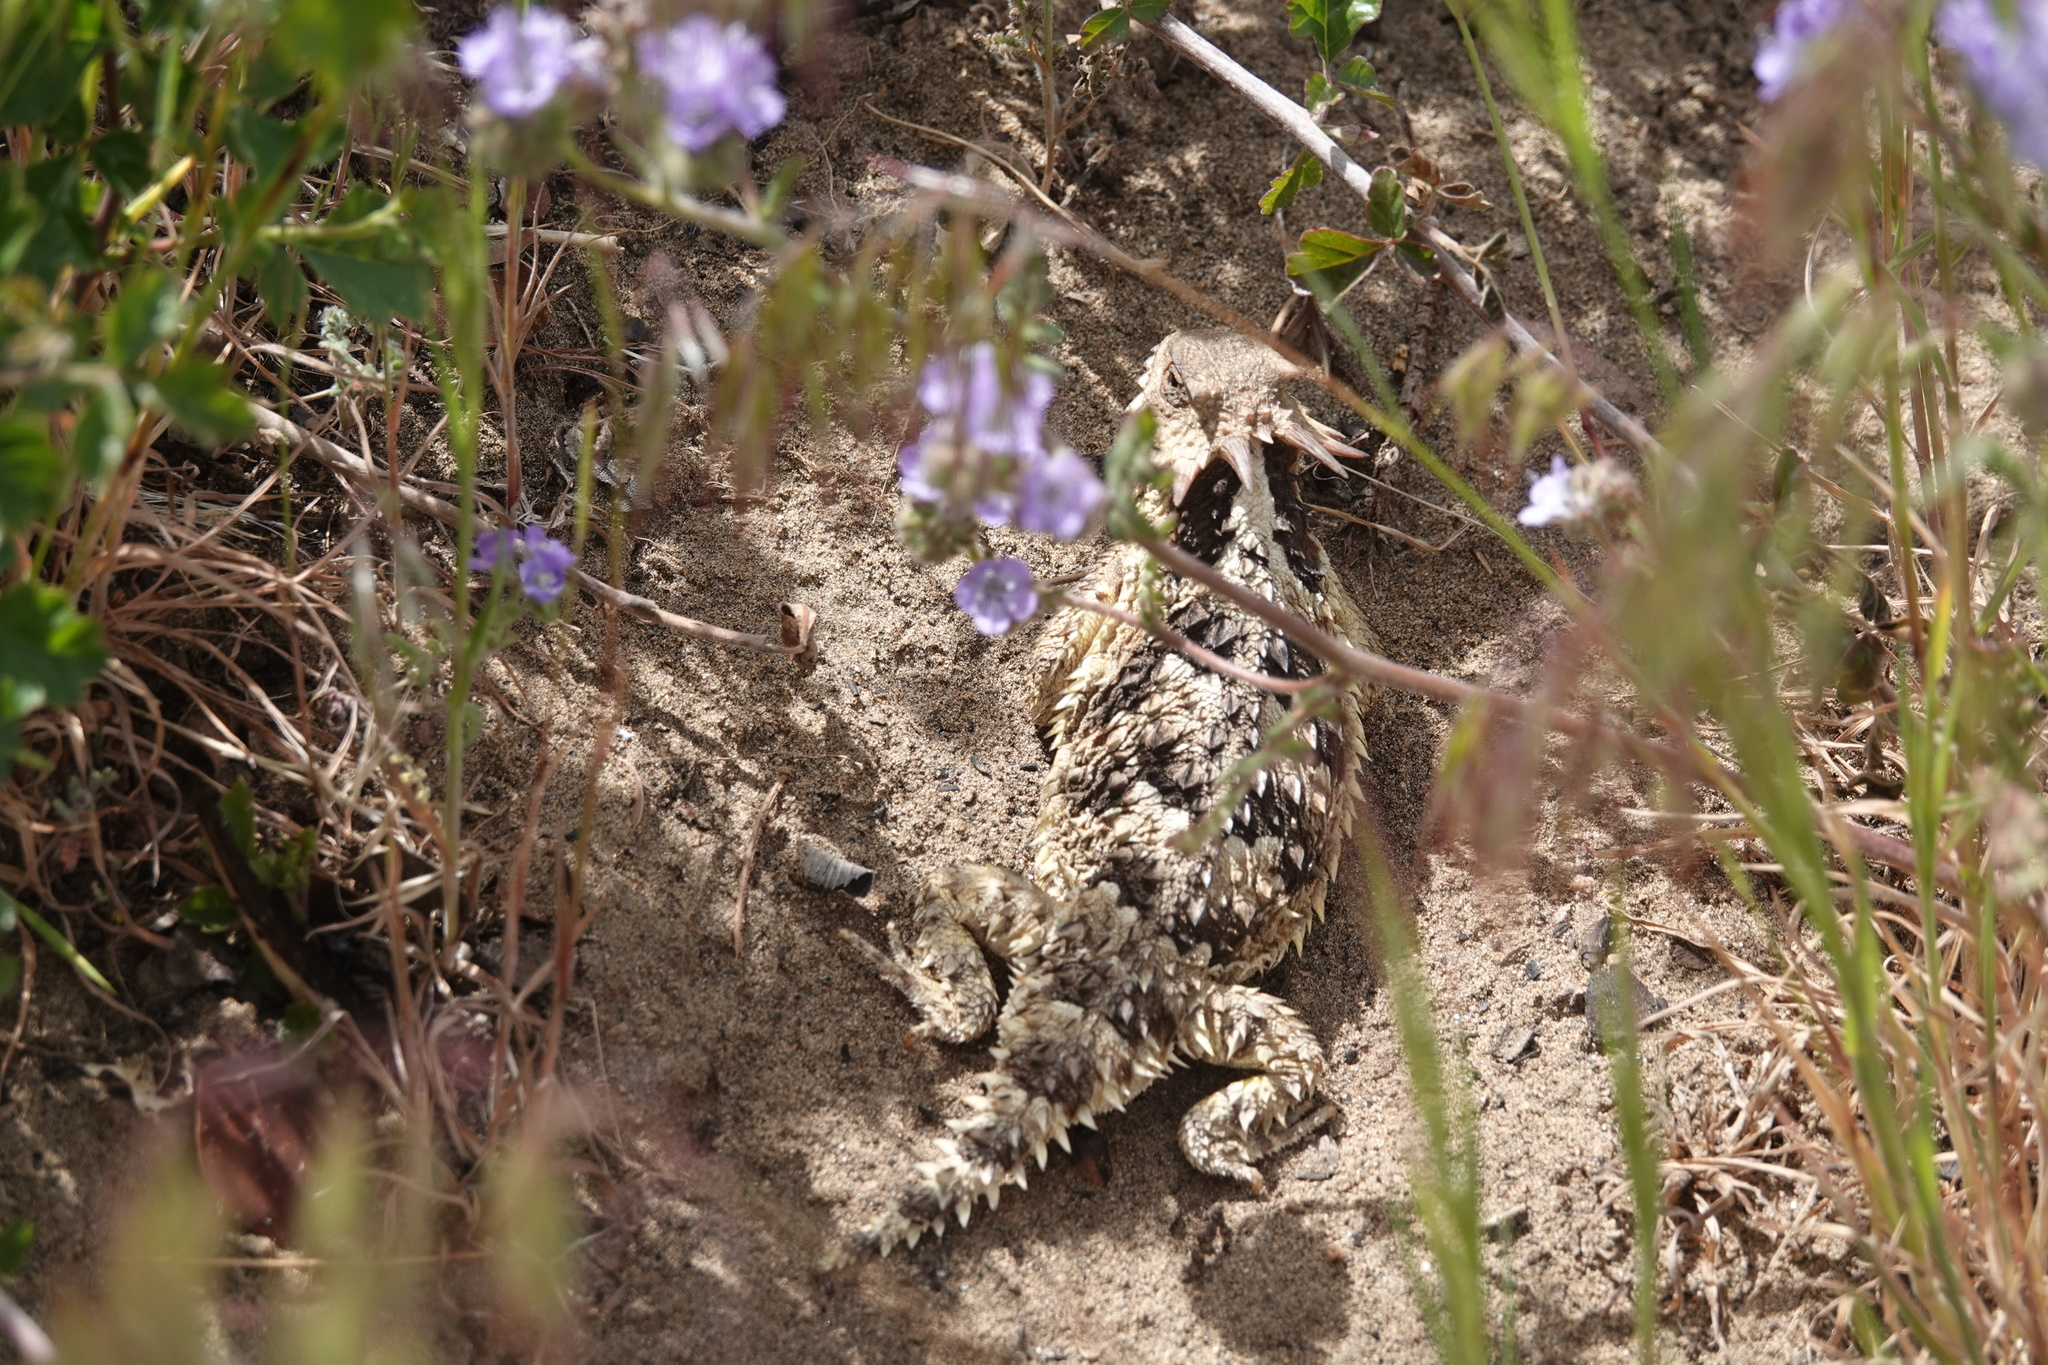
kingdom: Animalia
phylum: Chordata
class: Squamata
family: Phrynosomatidae
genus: Phrynosoma
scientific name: Phrynosoma blainvillii
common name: San diego horned lizard
